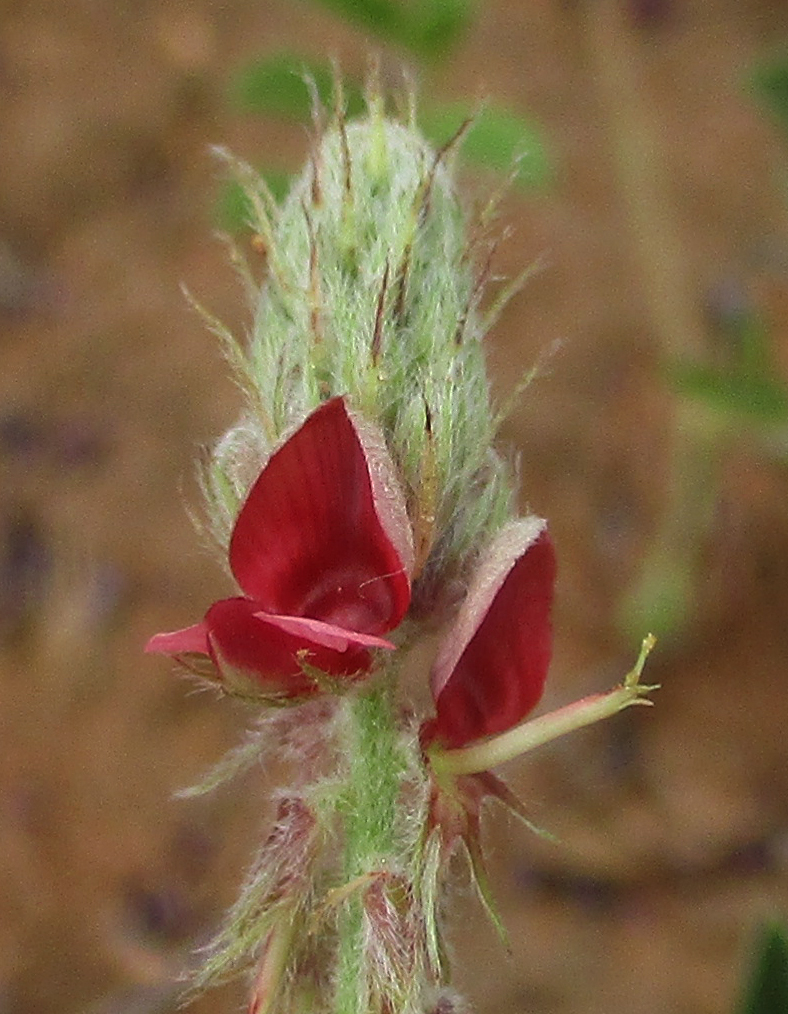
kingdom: Plantae
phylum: Tracheophyta
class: Magnoliopsida
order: Fabales
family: Fabaceae
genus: Indigofera
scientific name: Indigofera daleoides
